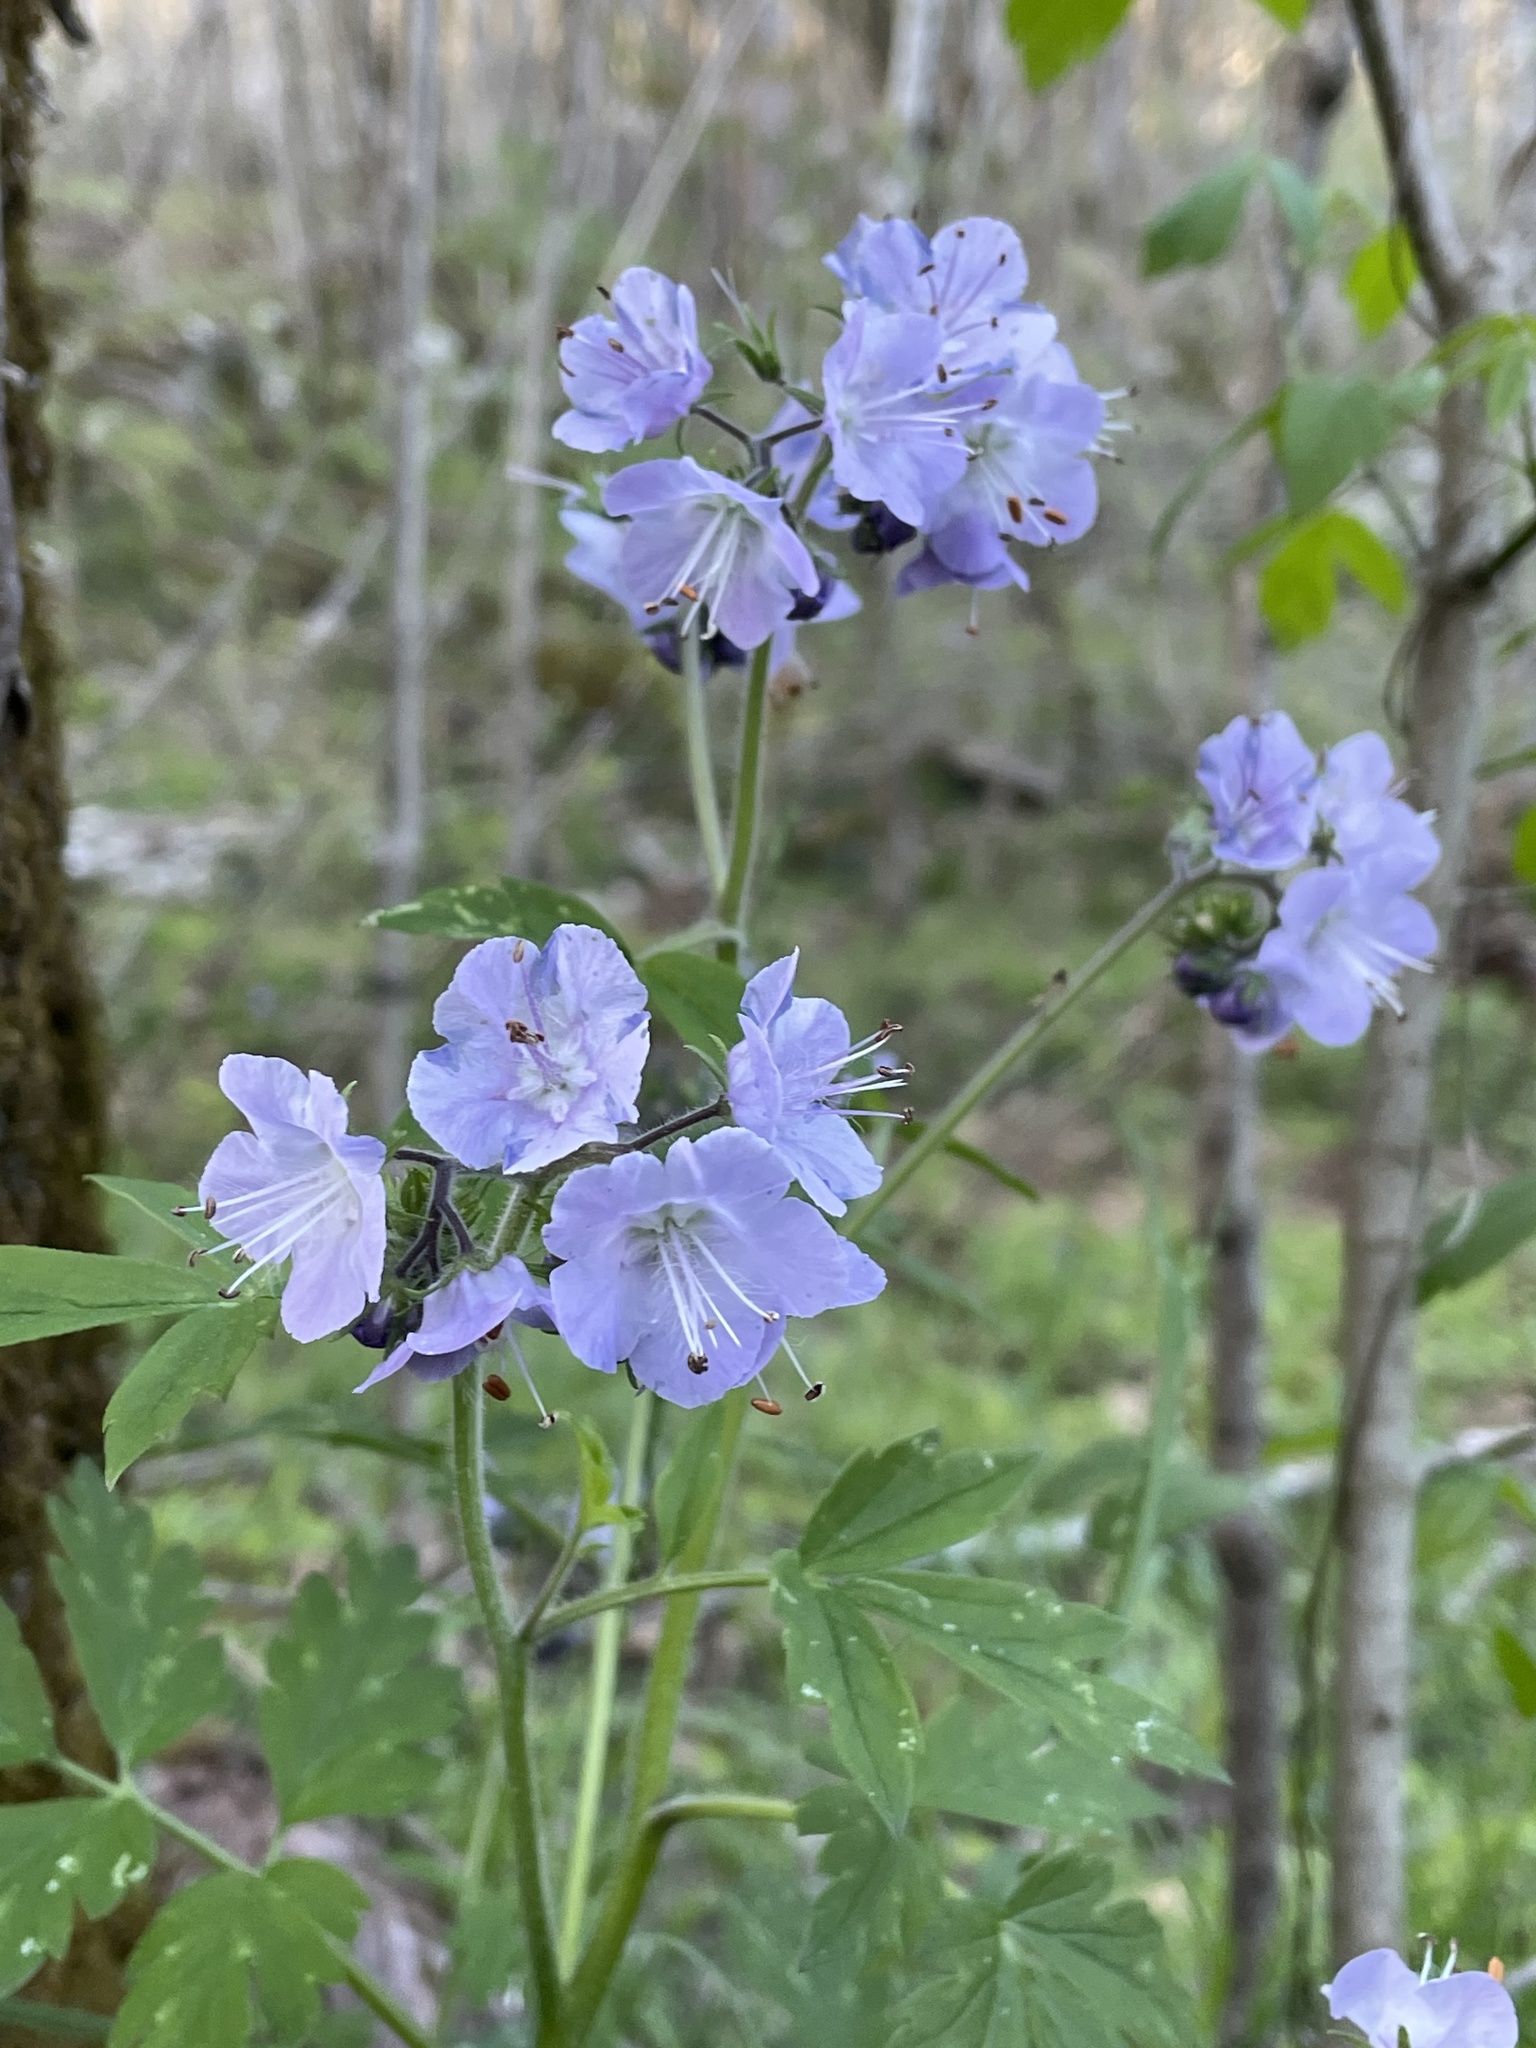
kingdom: Plantae
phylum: Tracheophyta
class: Magnoliopsida
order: Boraginales
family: Hydrophyllaceae
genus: Phacelia
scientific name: Phacelia bipinnatifida
